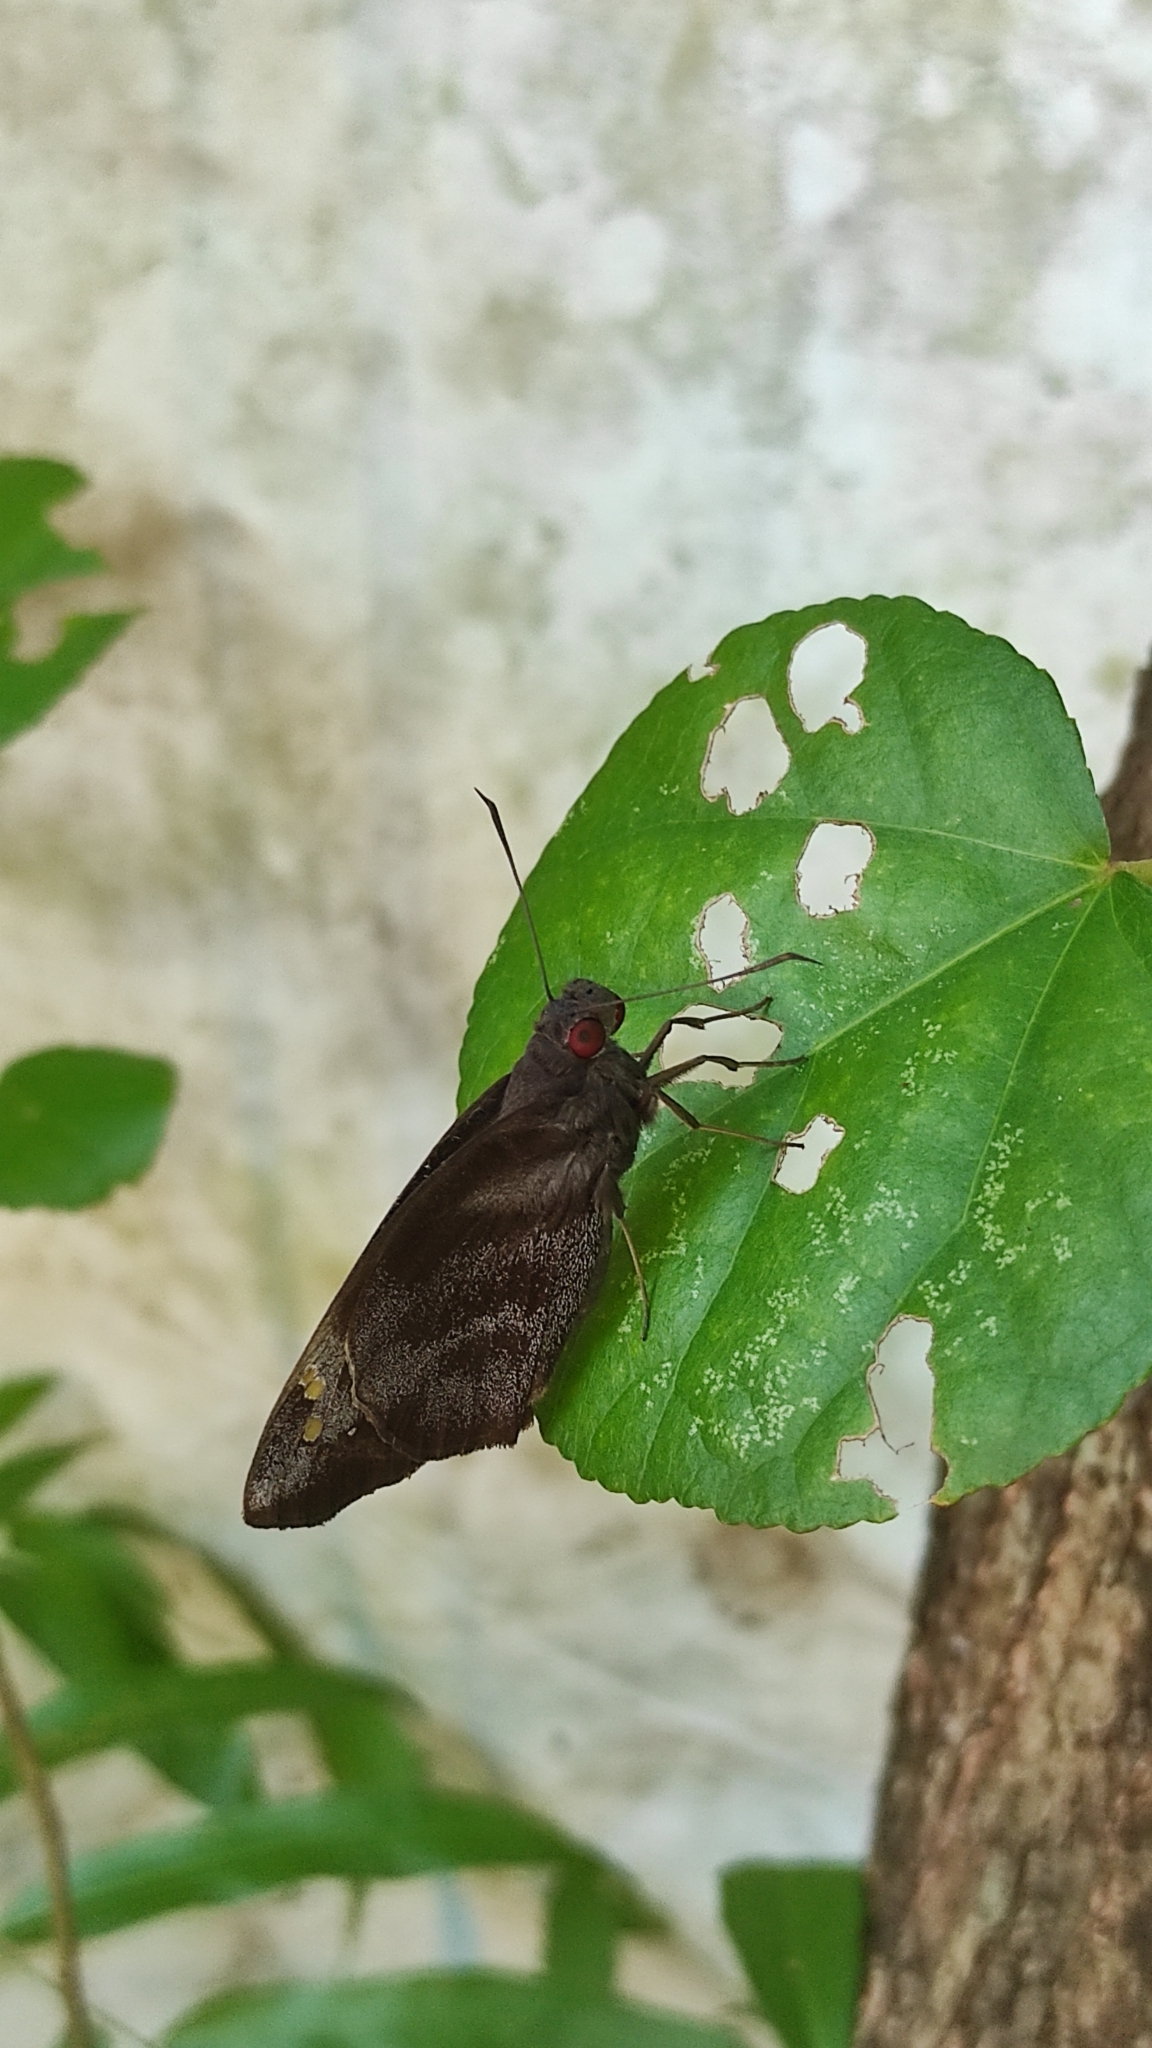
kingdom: Animalia
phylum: Arthropoda
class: Insecta
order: Lepidoptera
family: Hesperiidae
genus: Gangara
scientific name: Gangara thyrsis
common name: Giant redeye
